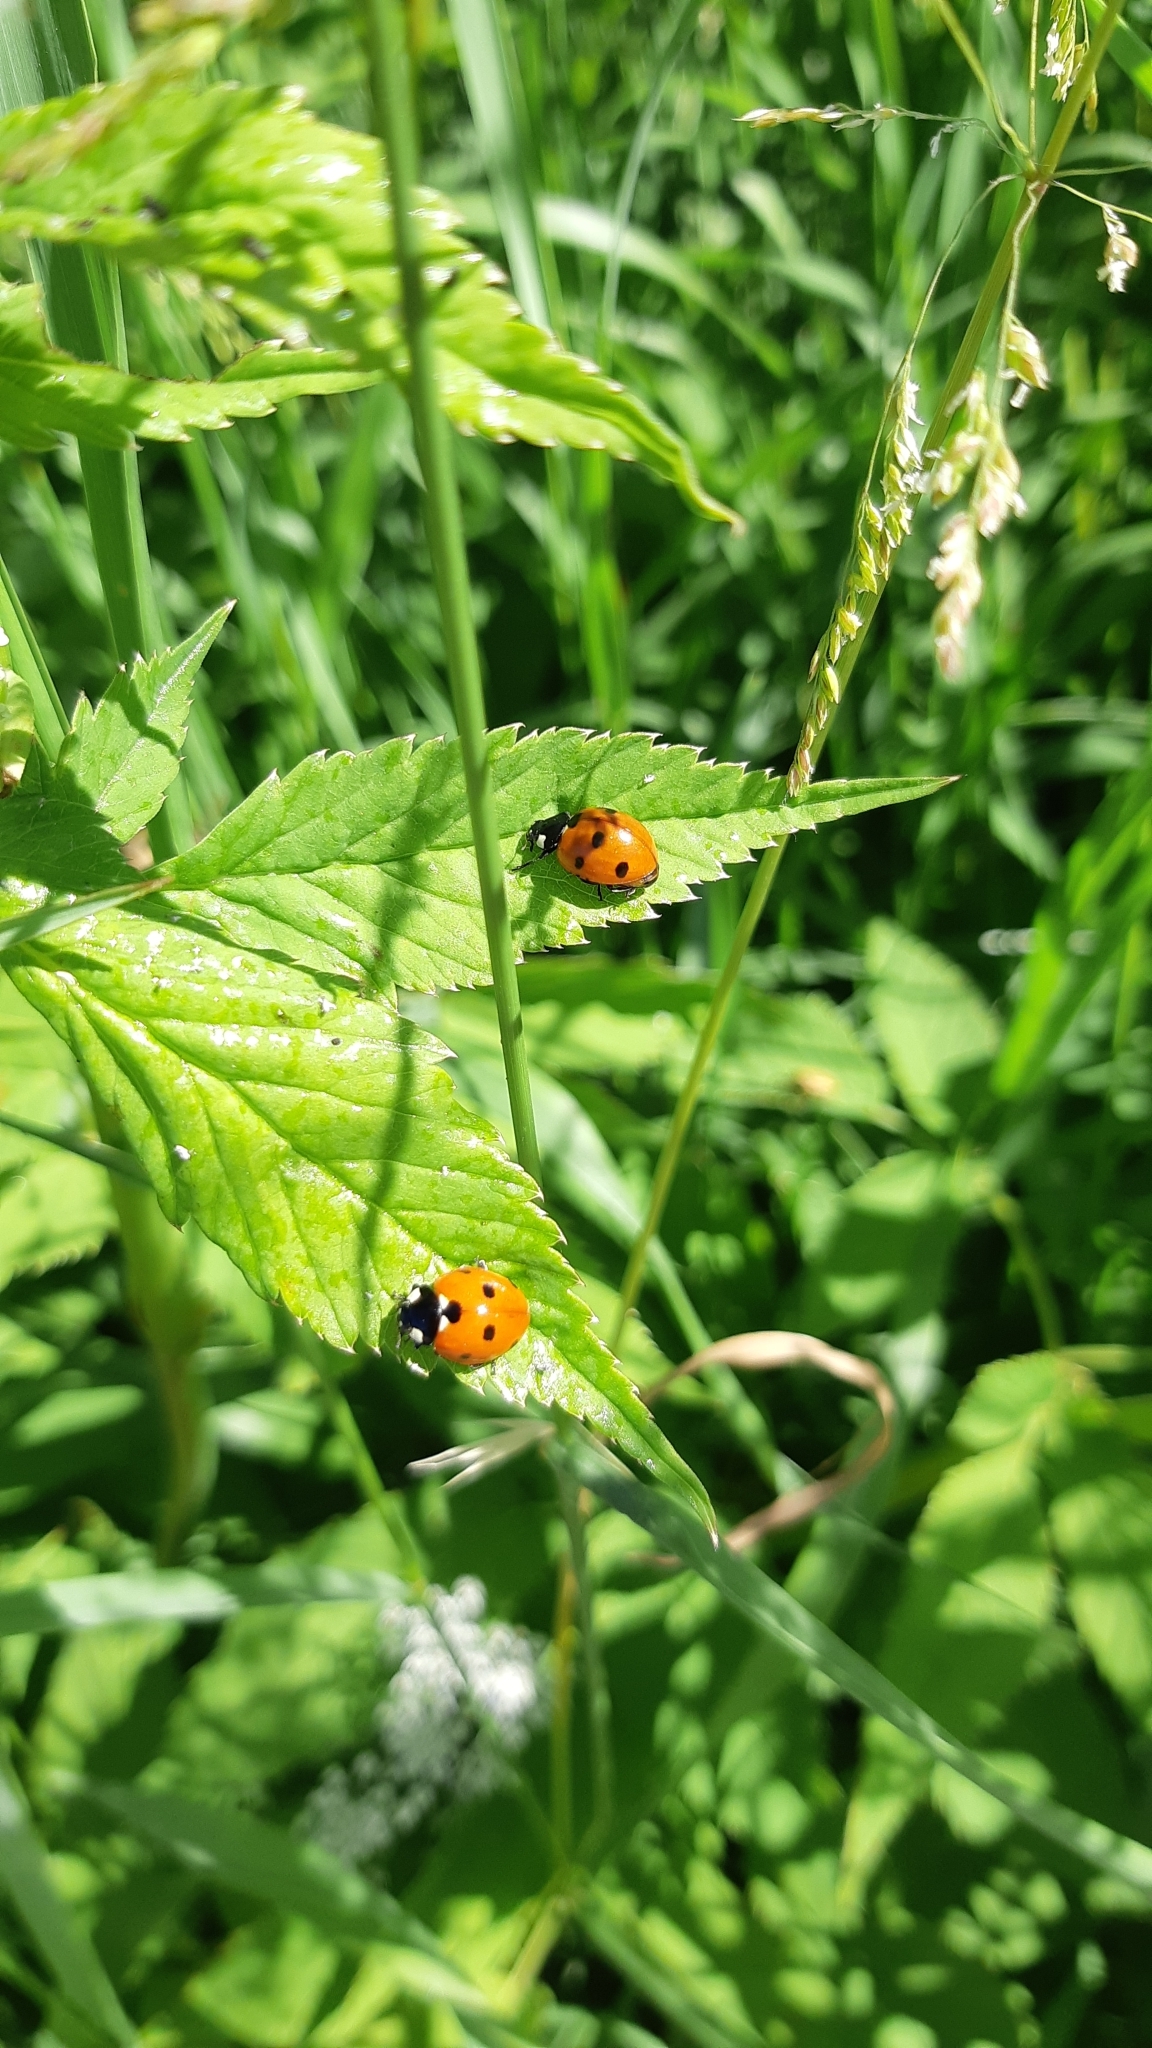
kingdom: Animalia
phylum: Arthropoda
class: Insecta
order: Coleoptera
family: Coccinellidae
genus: Coccinella
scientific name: Coccinella septempunctata
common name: Sevenspotted lady beetle
